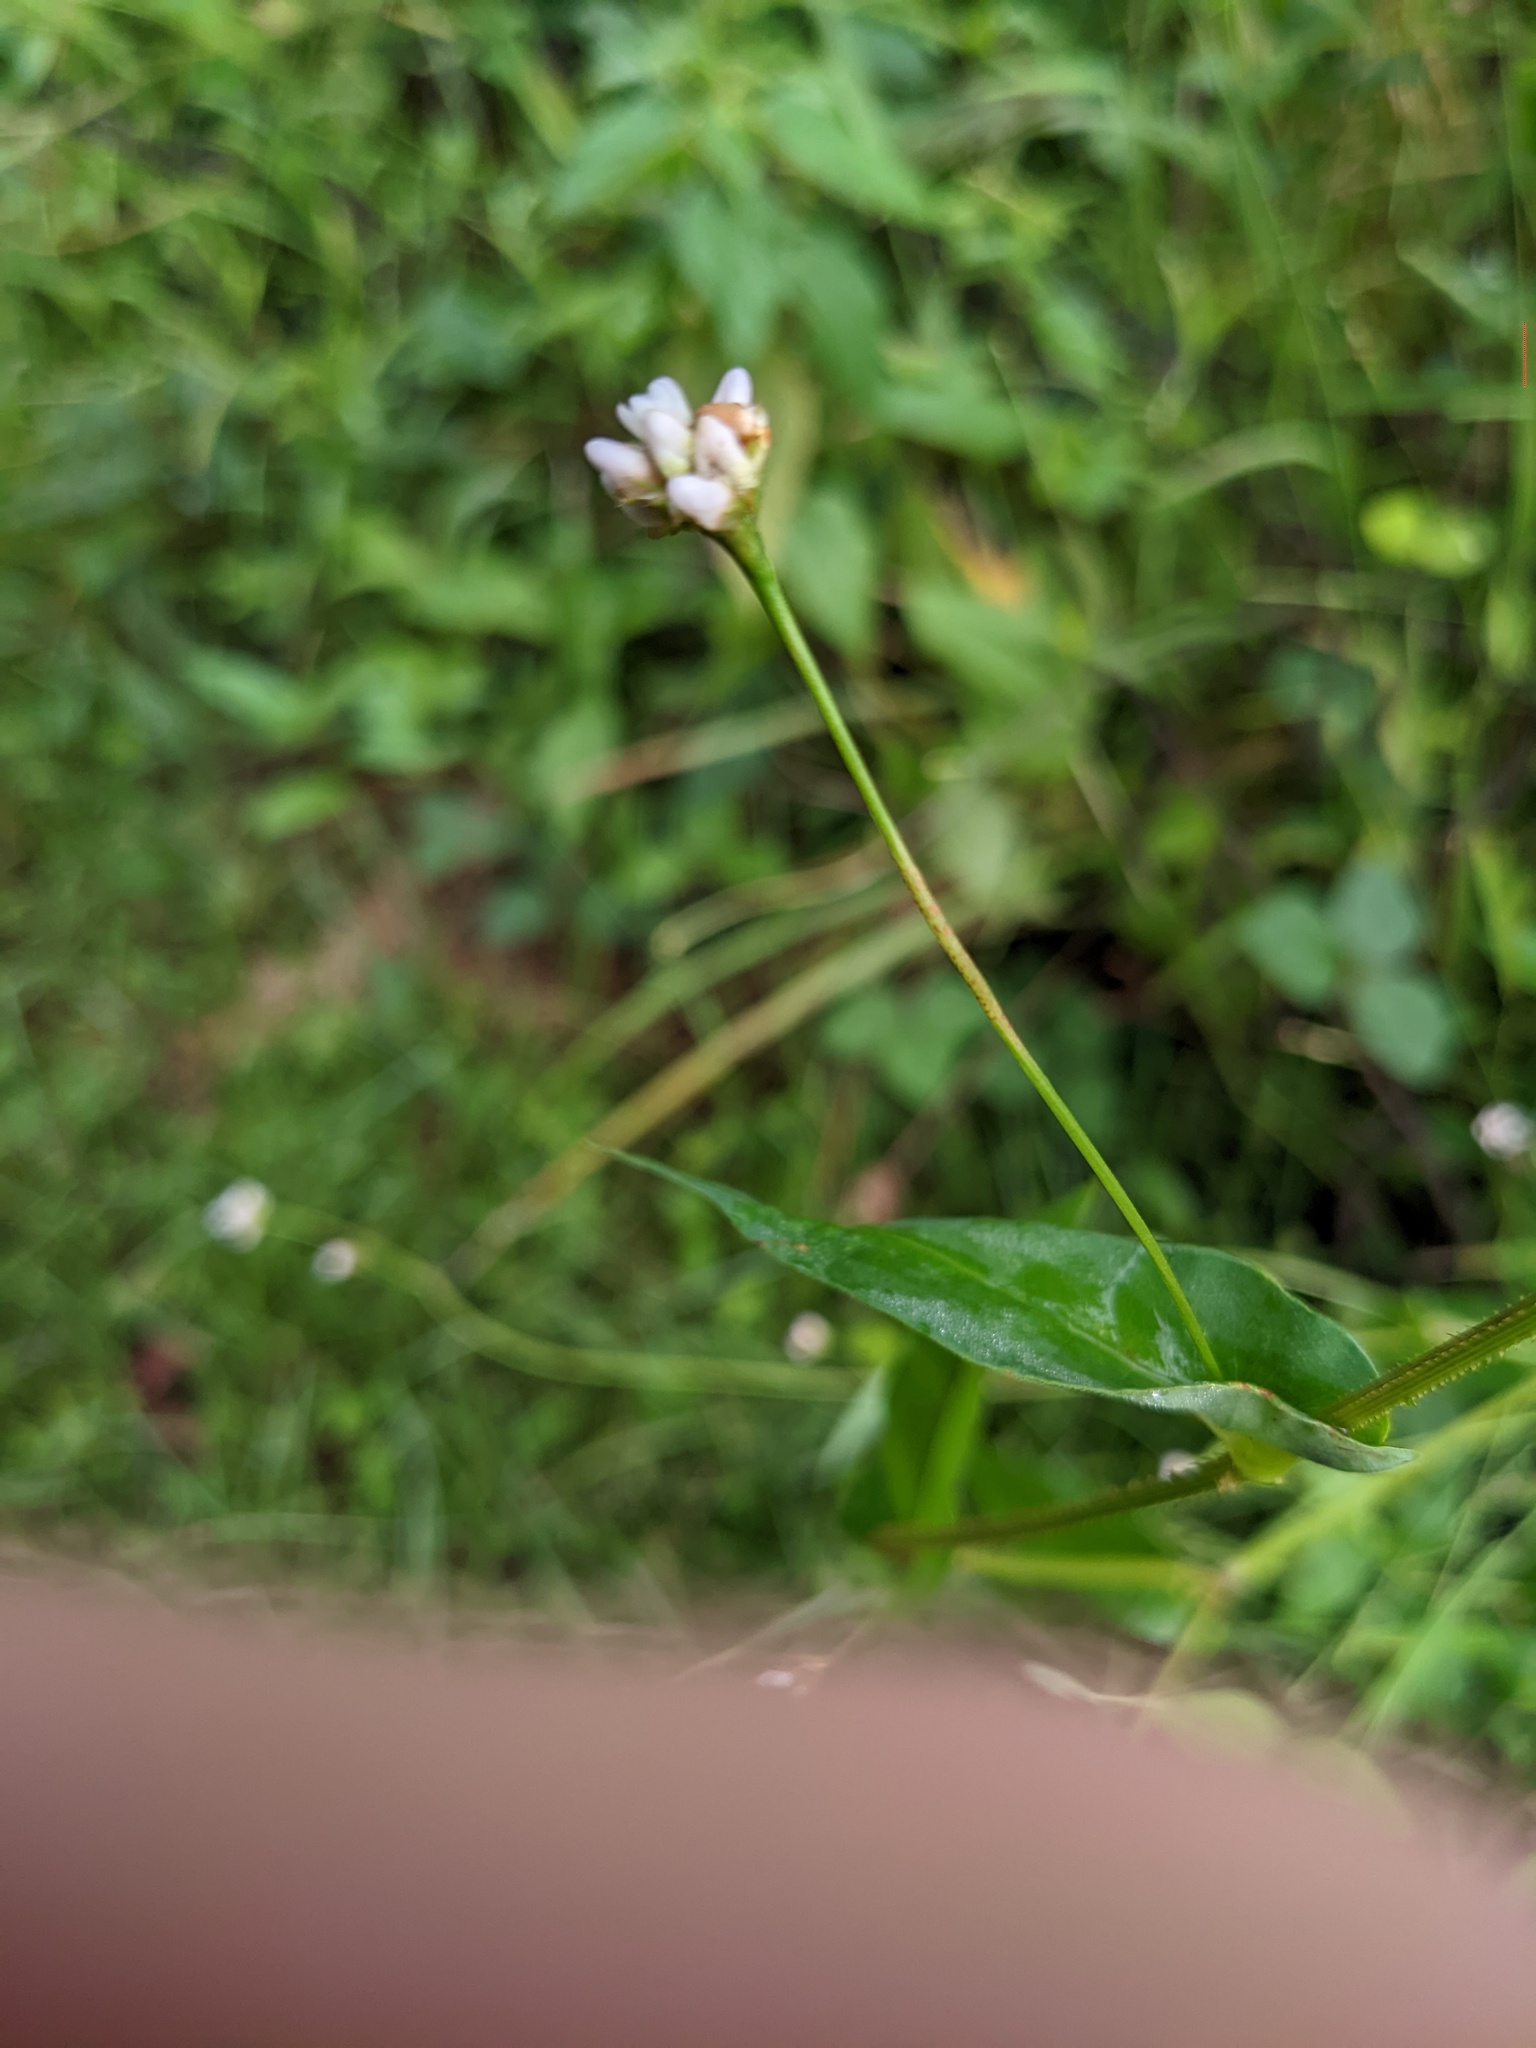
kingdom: Plantae
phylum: Tracheophyta
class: Magnoliopsida
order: Caryophyllales
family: Polygonaceae
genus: Persicaria
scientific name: Persicaria sagittata
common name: American tearthumb
